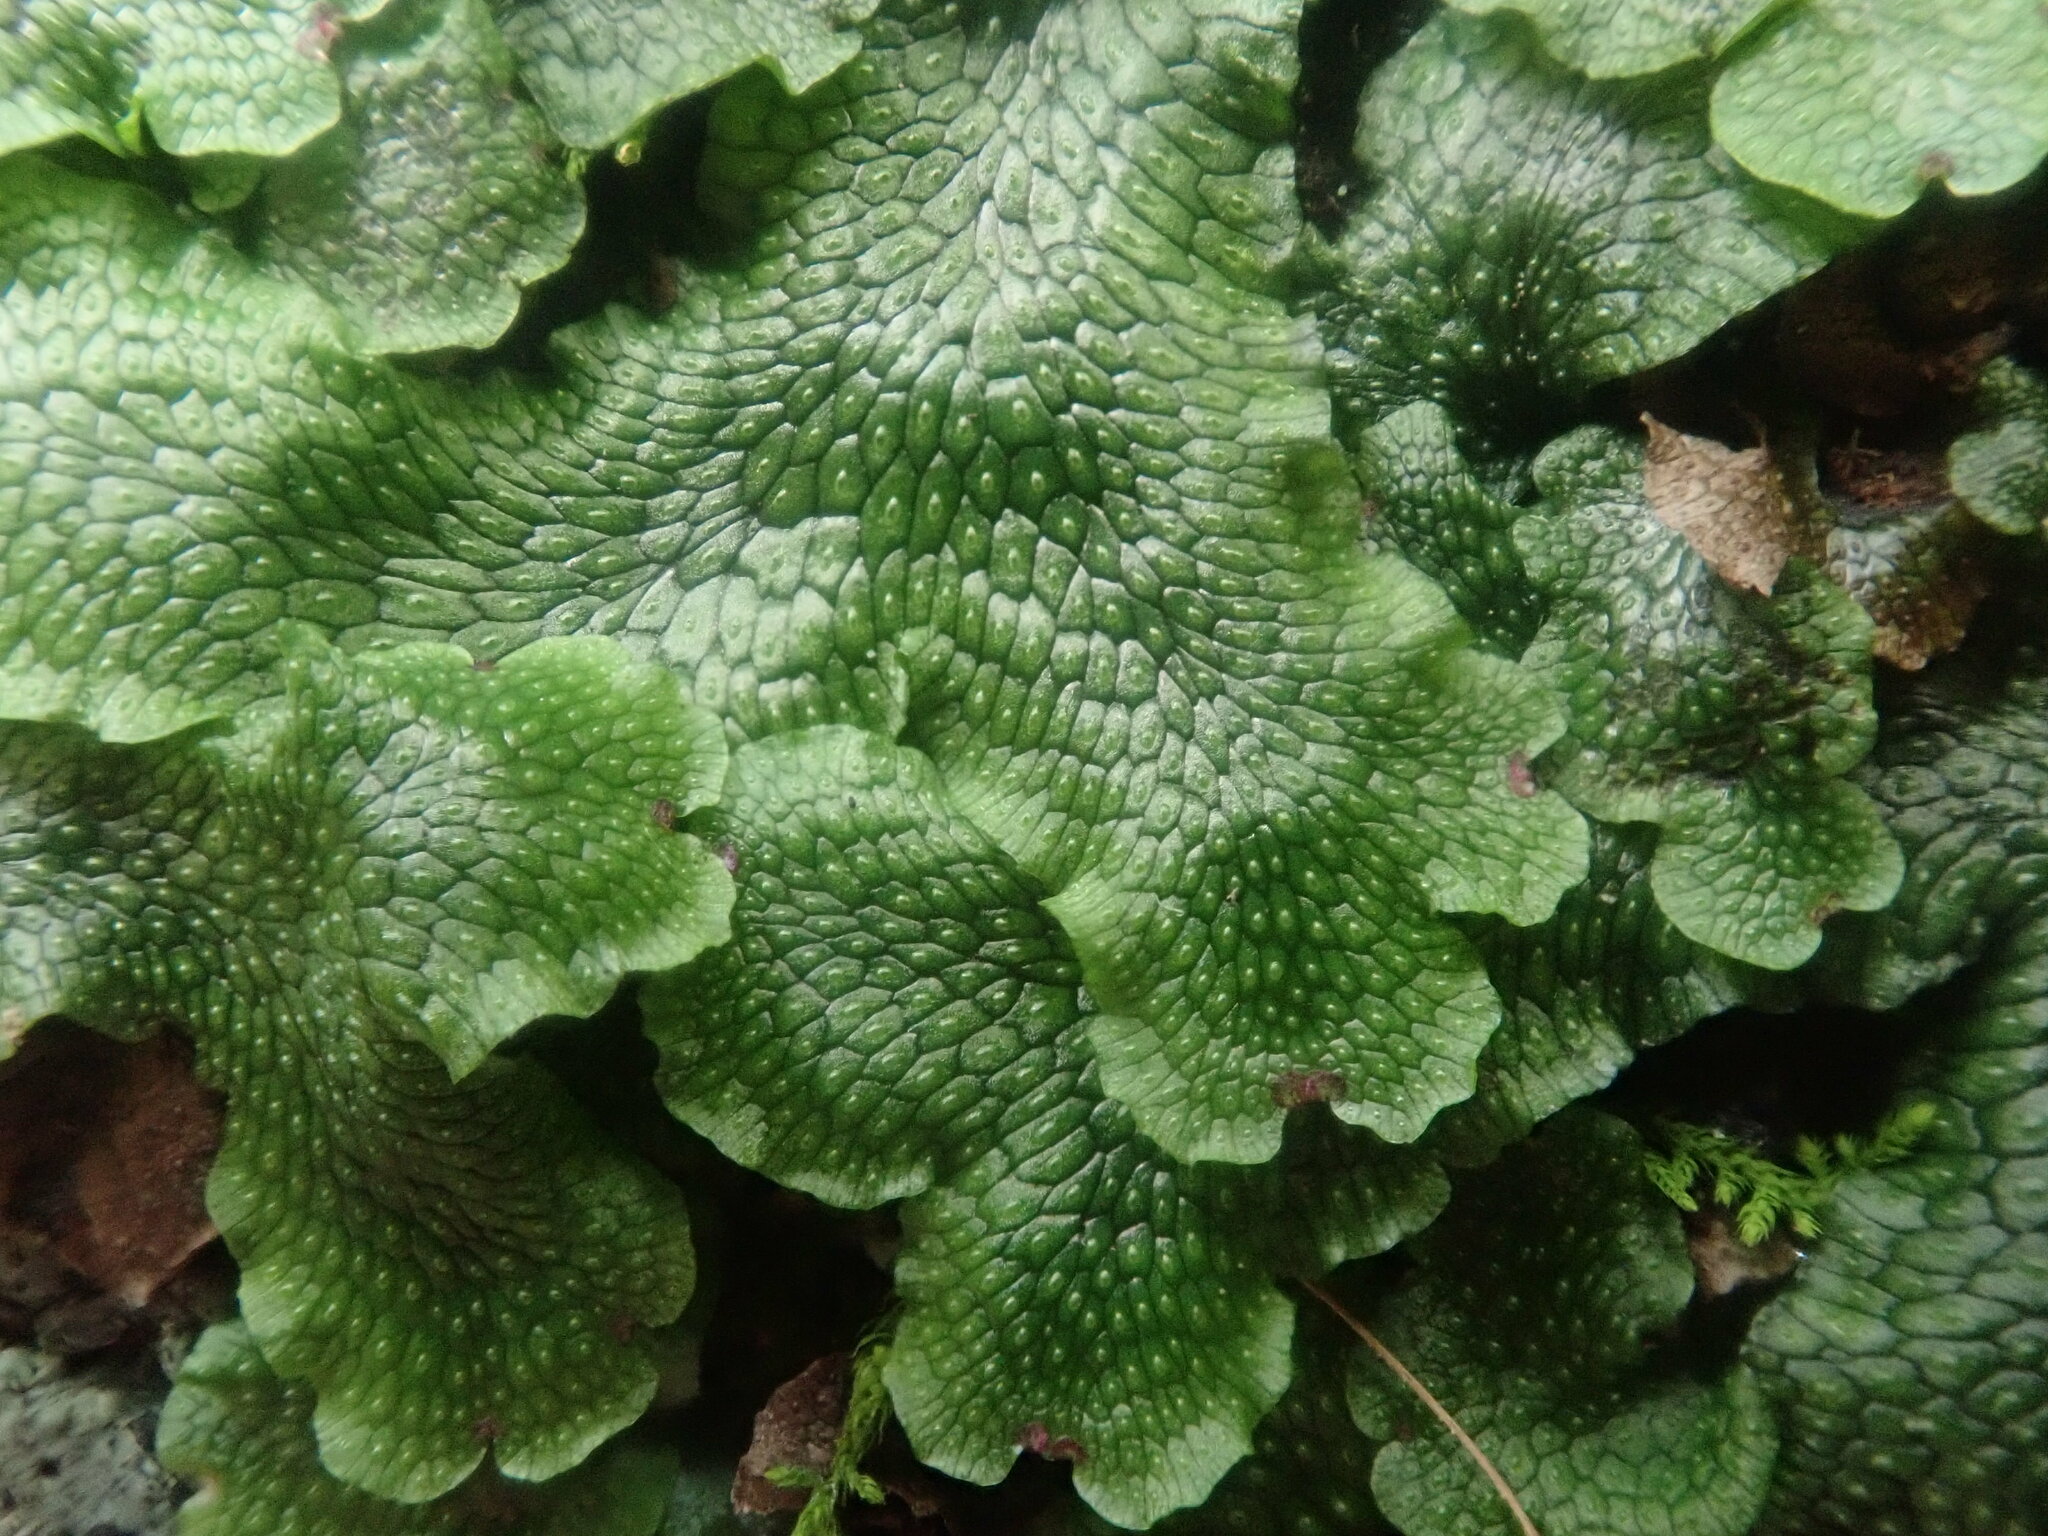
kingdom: Plantae
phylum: Marchantiophyta
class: Marchantiopsida
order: Marchantiales
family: Conocephalaceae
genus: Conocephalum
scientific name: Conocephalum salebrosum
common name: Cat-tongue liverwort
